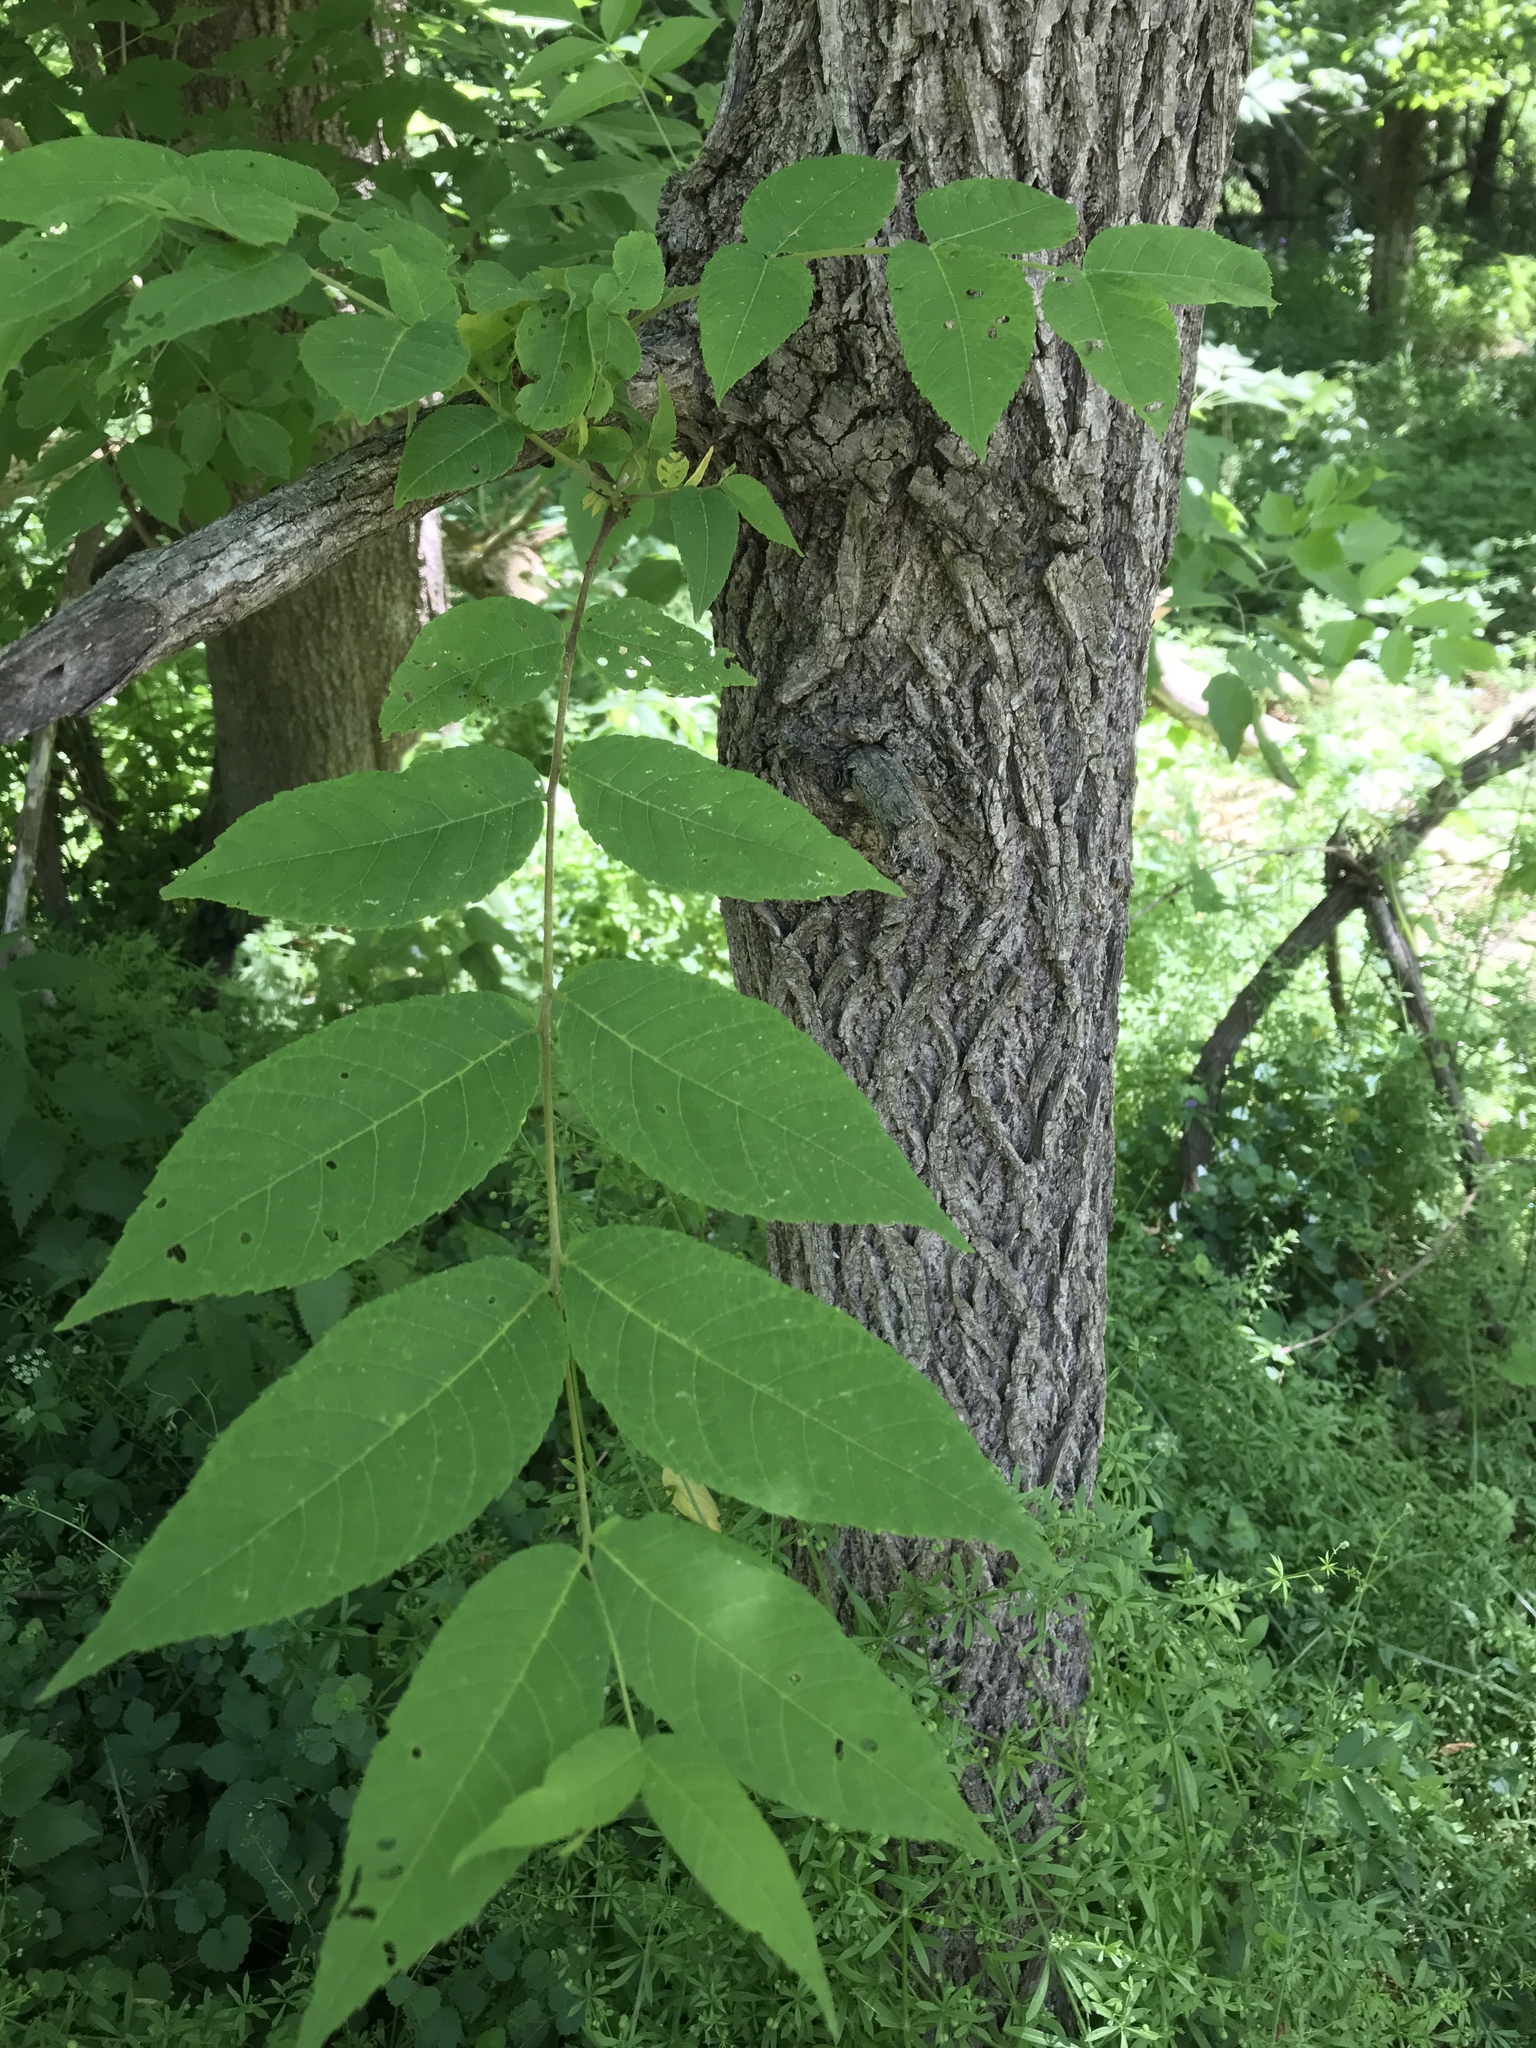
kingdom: Plantae
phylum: Tracheophyta
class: Magnoliopsida
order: Fagales
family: Juglandaceae
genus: Juglans
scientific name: Juglans nigra
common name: Black walnut
